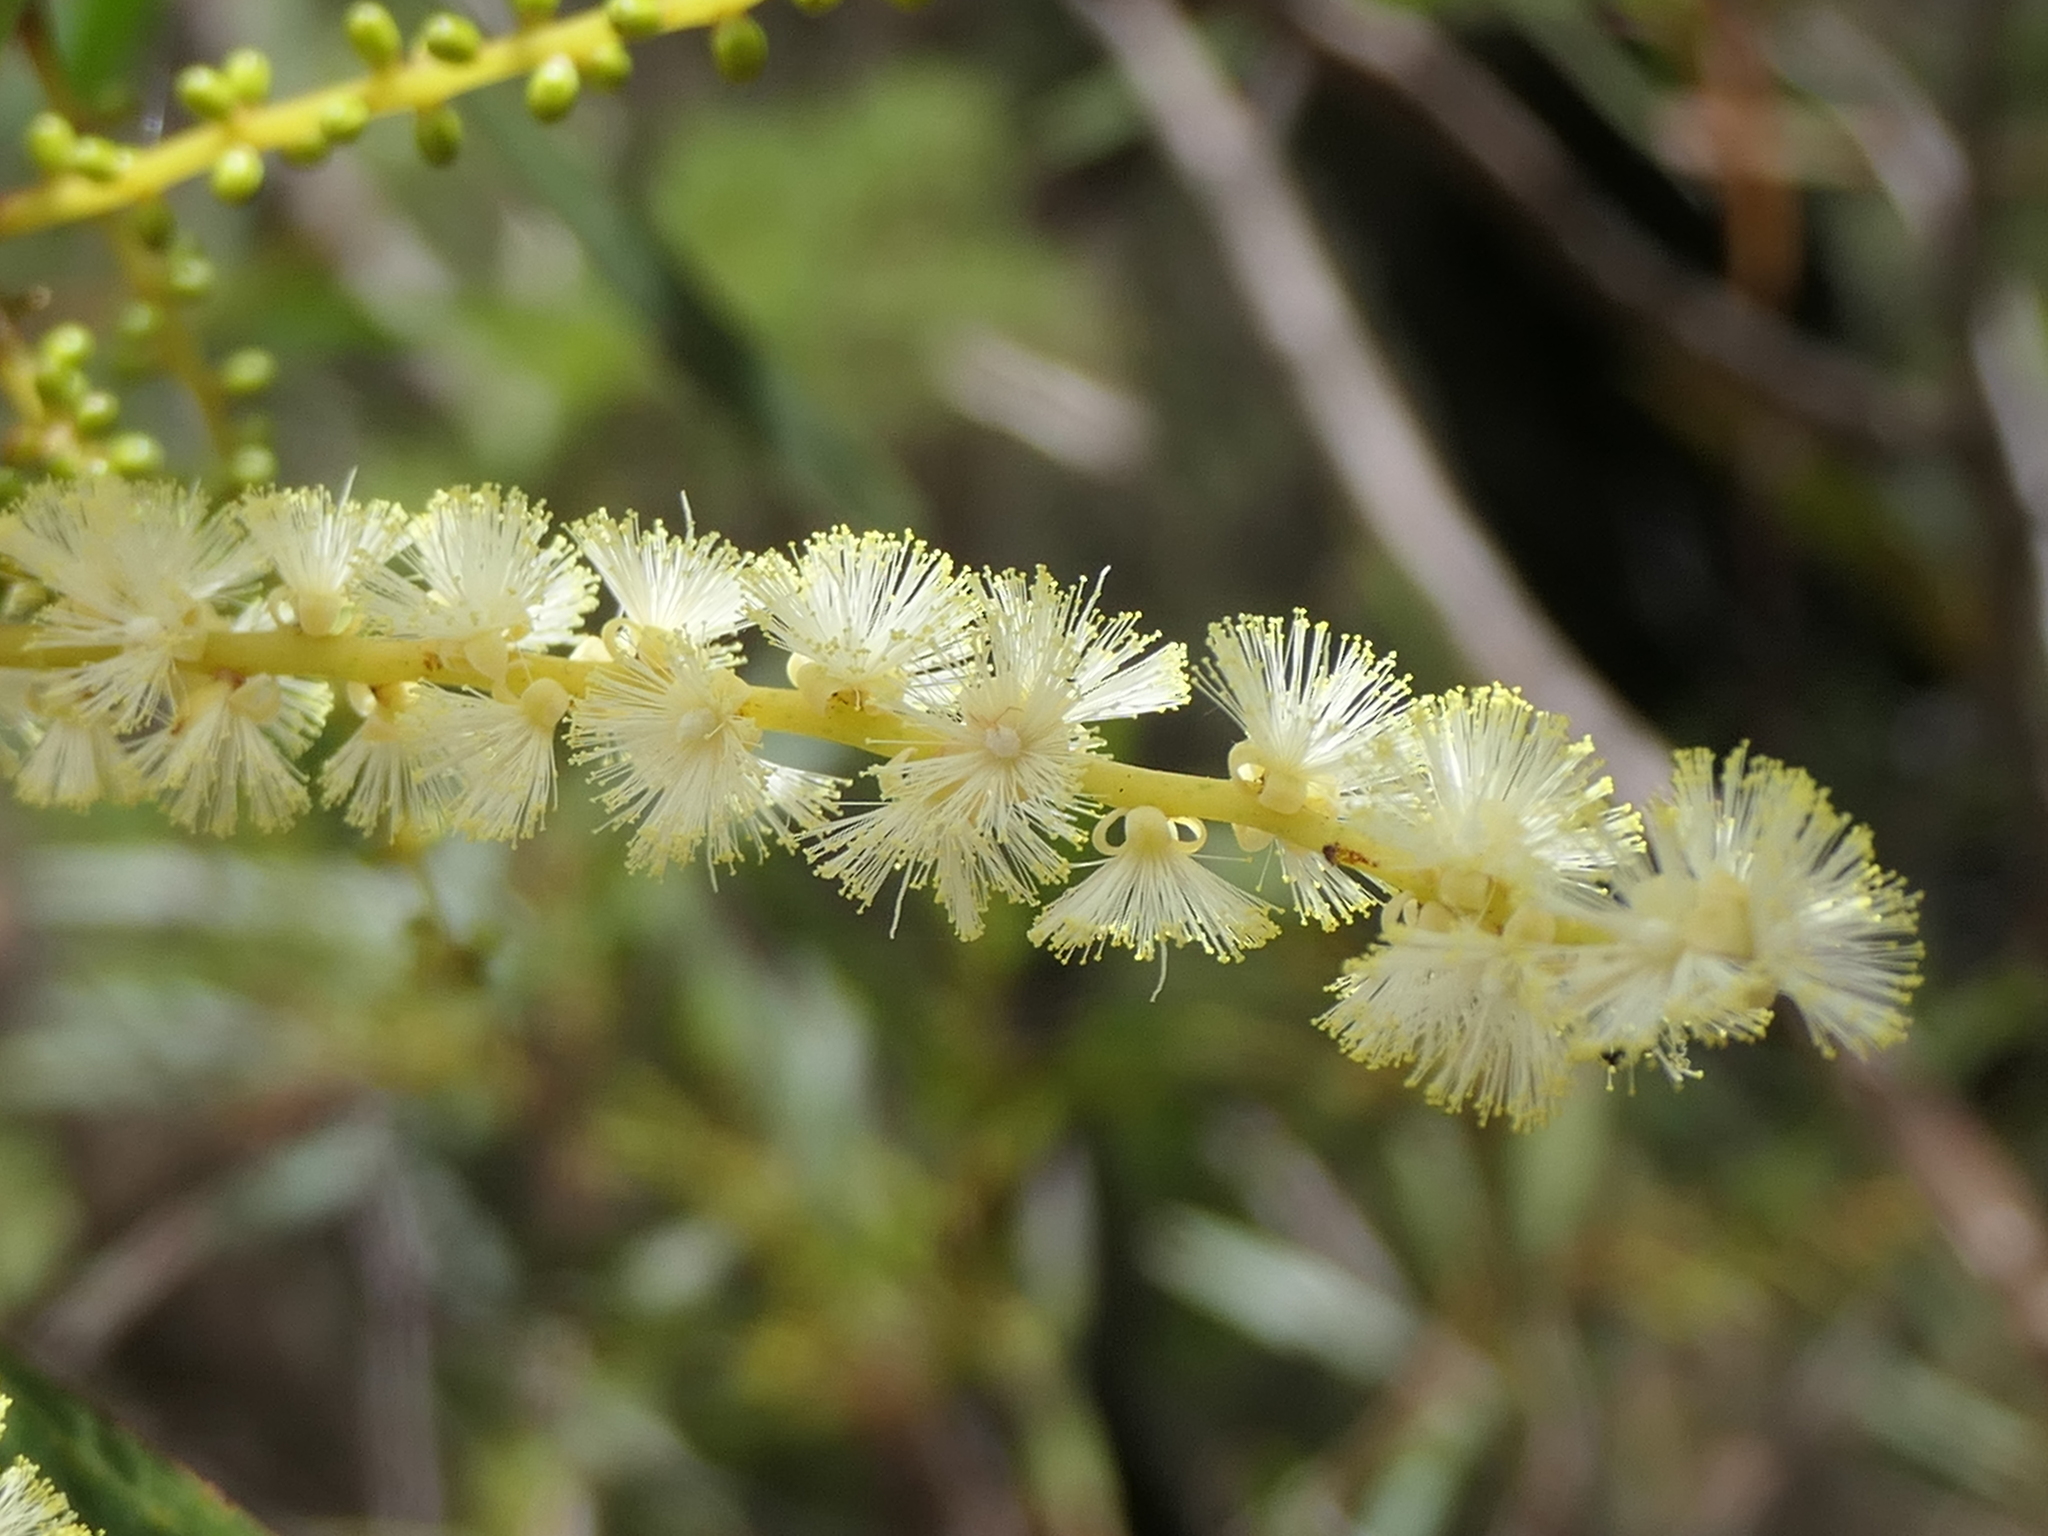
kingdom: Plantae
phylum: Tracheophyta
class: Magnoliopsida
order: Fabales
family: Fabaceae
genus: Acacia
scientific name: Acacia obtusifolia
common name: Stiff-leaf wattle
